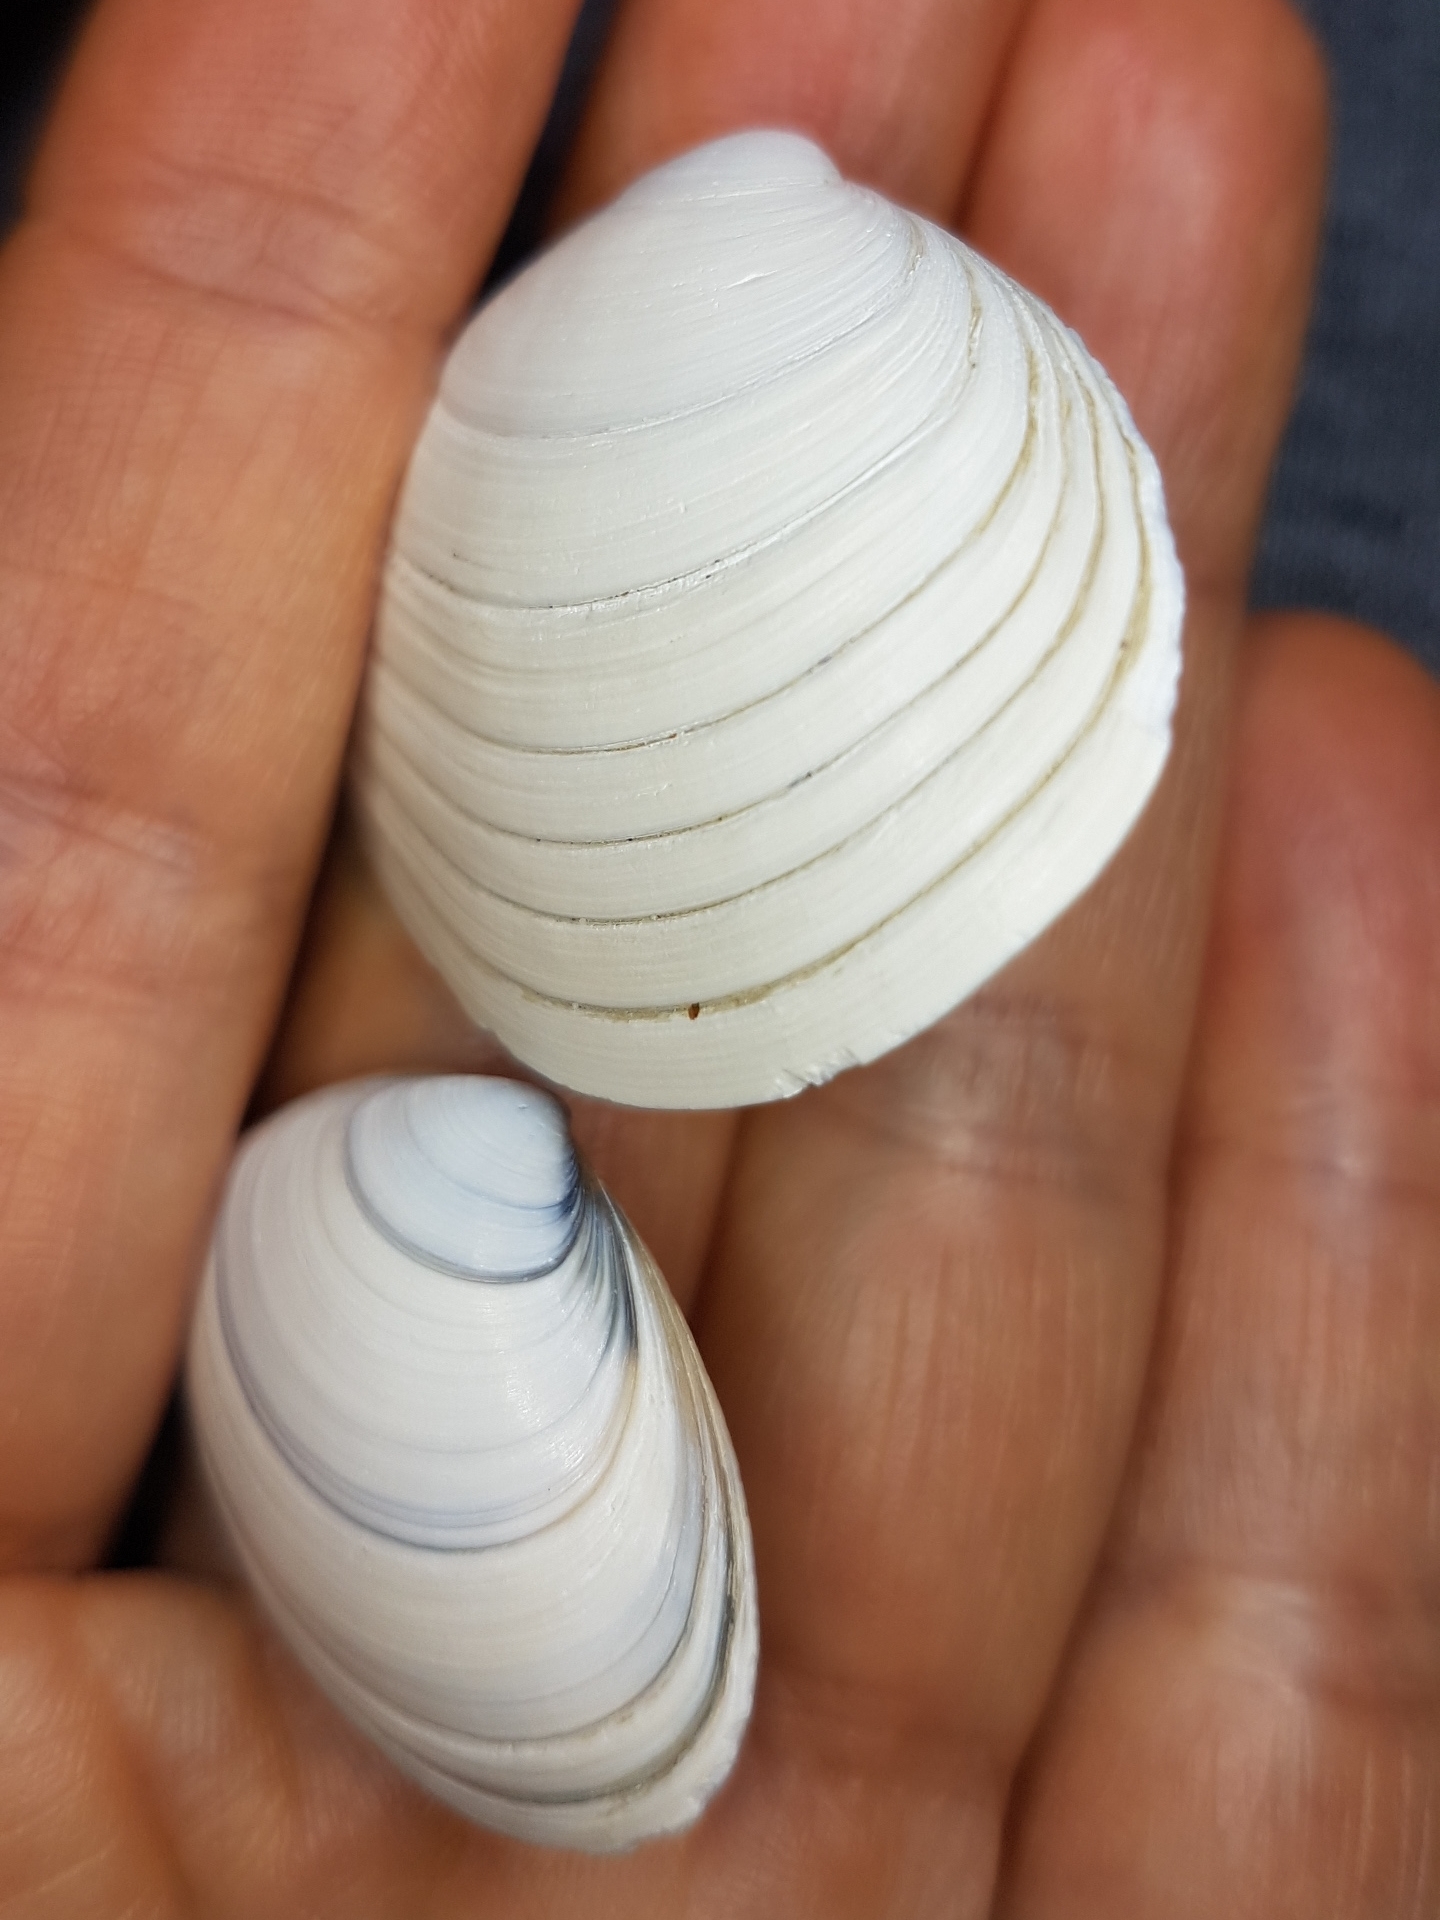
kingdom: Animalia
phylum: Mollusca
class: Bivalvia
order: Venerida
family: Mactridae
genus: Spisula
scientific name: Spisula solida
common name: Thick trough shell
